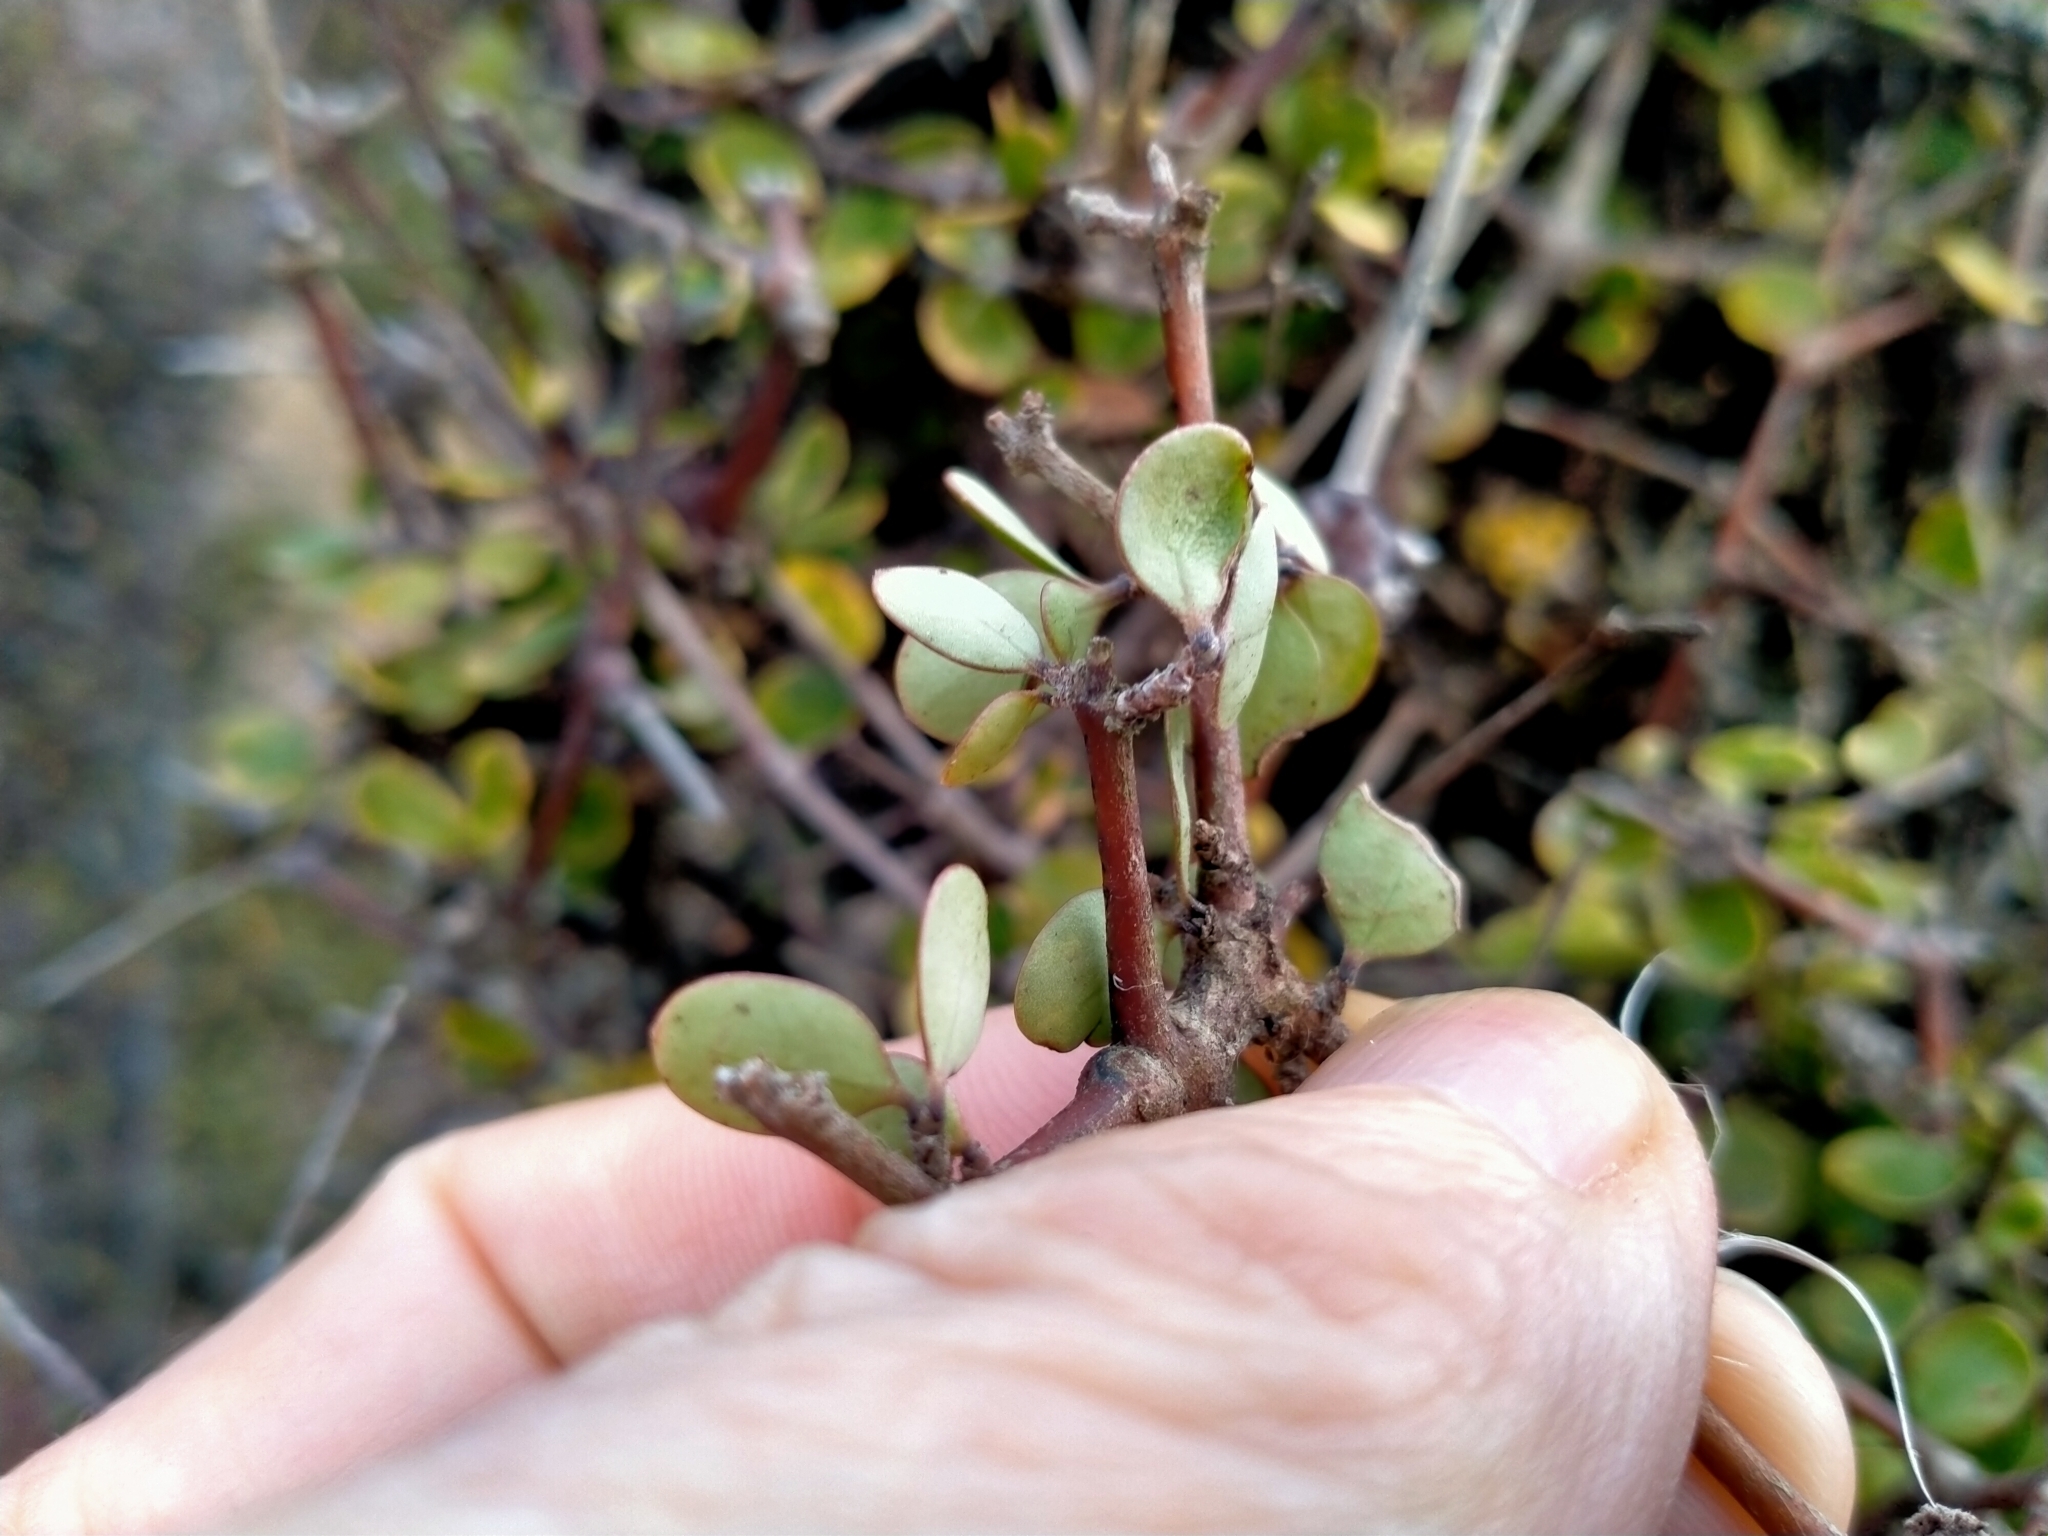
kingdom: Plantae
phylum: Tracheophyta
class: Magnoliopsida
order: Gentianales
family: Rubiaceae
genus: Coprosma
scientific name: Coprosma crassifolia
